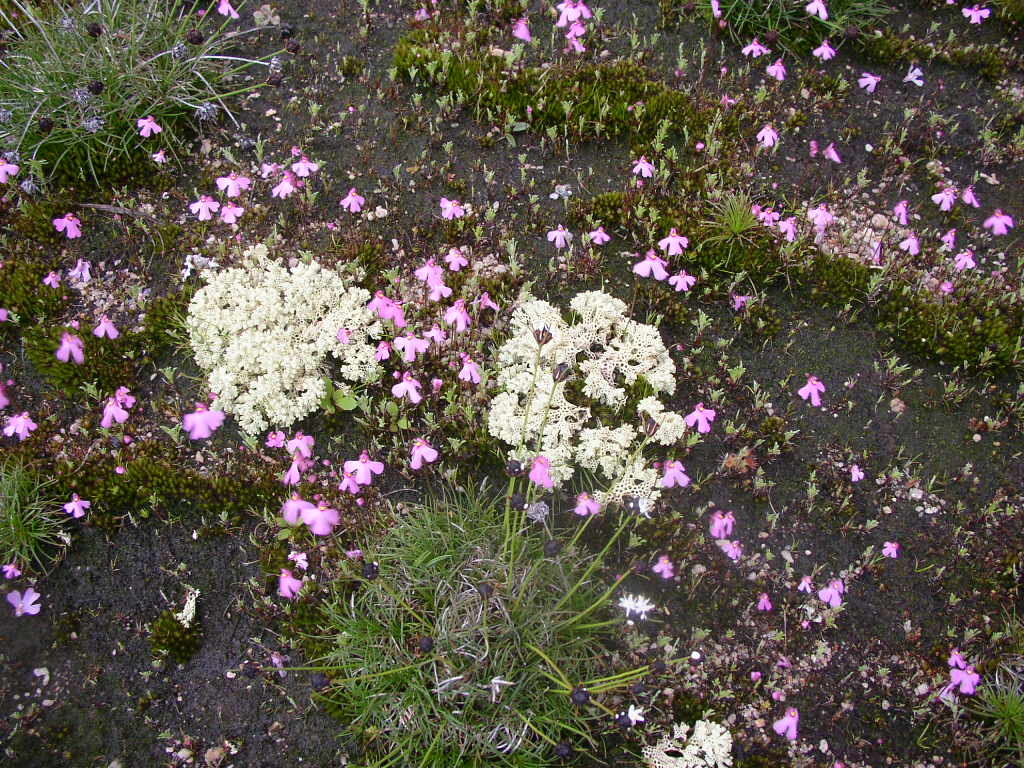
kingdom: Fungi
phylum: Ascomycota
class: Lecanoromycetes
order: Lecanorales
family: Cladoniaceae
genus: Pulchrocladia
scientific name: Pulchrocladia retipora
